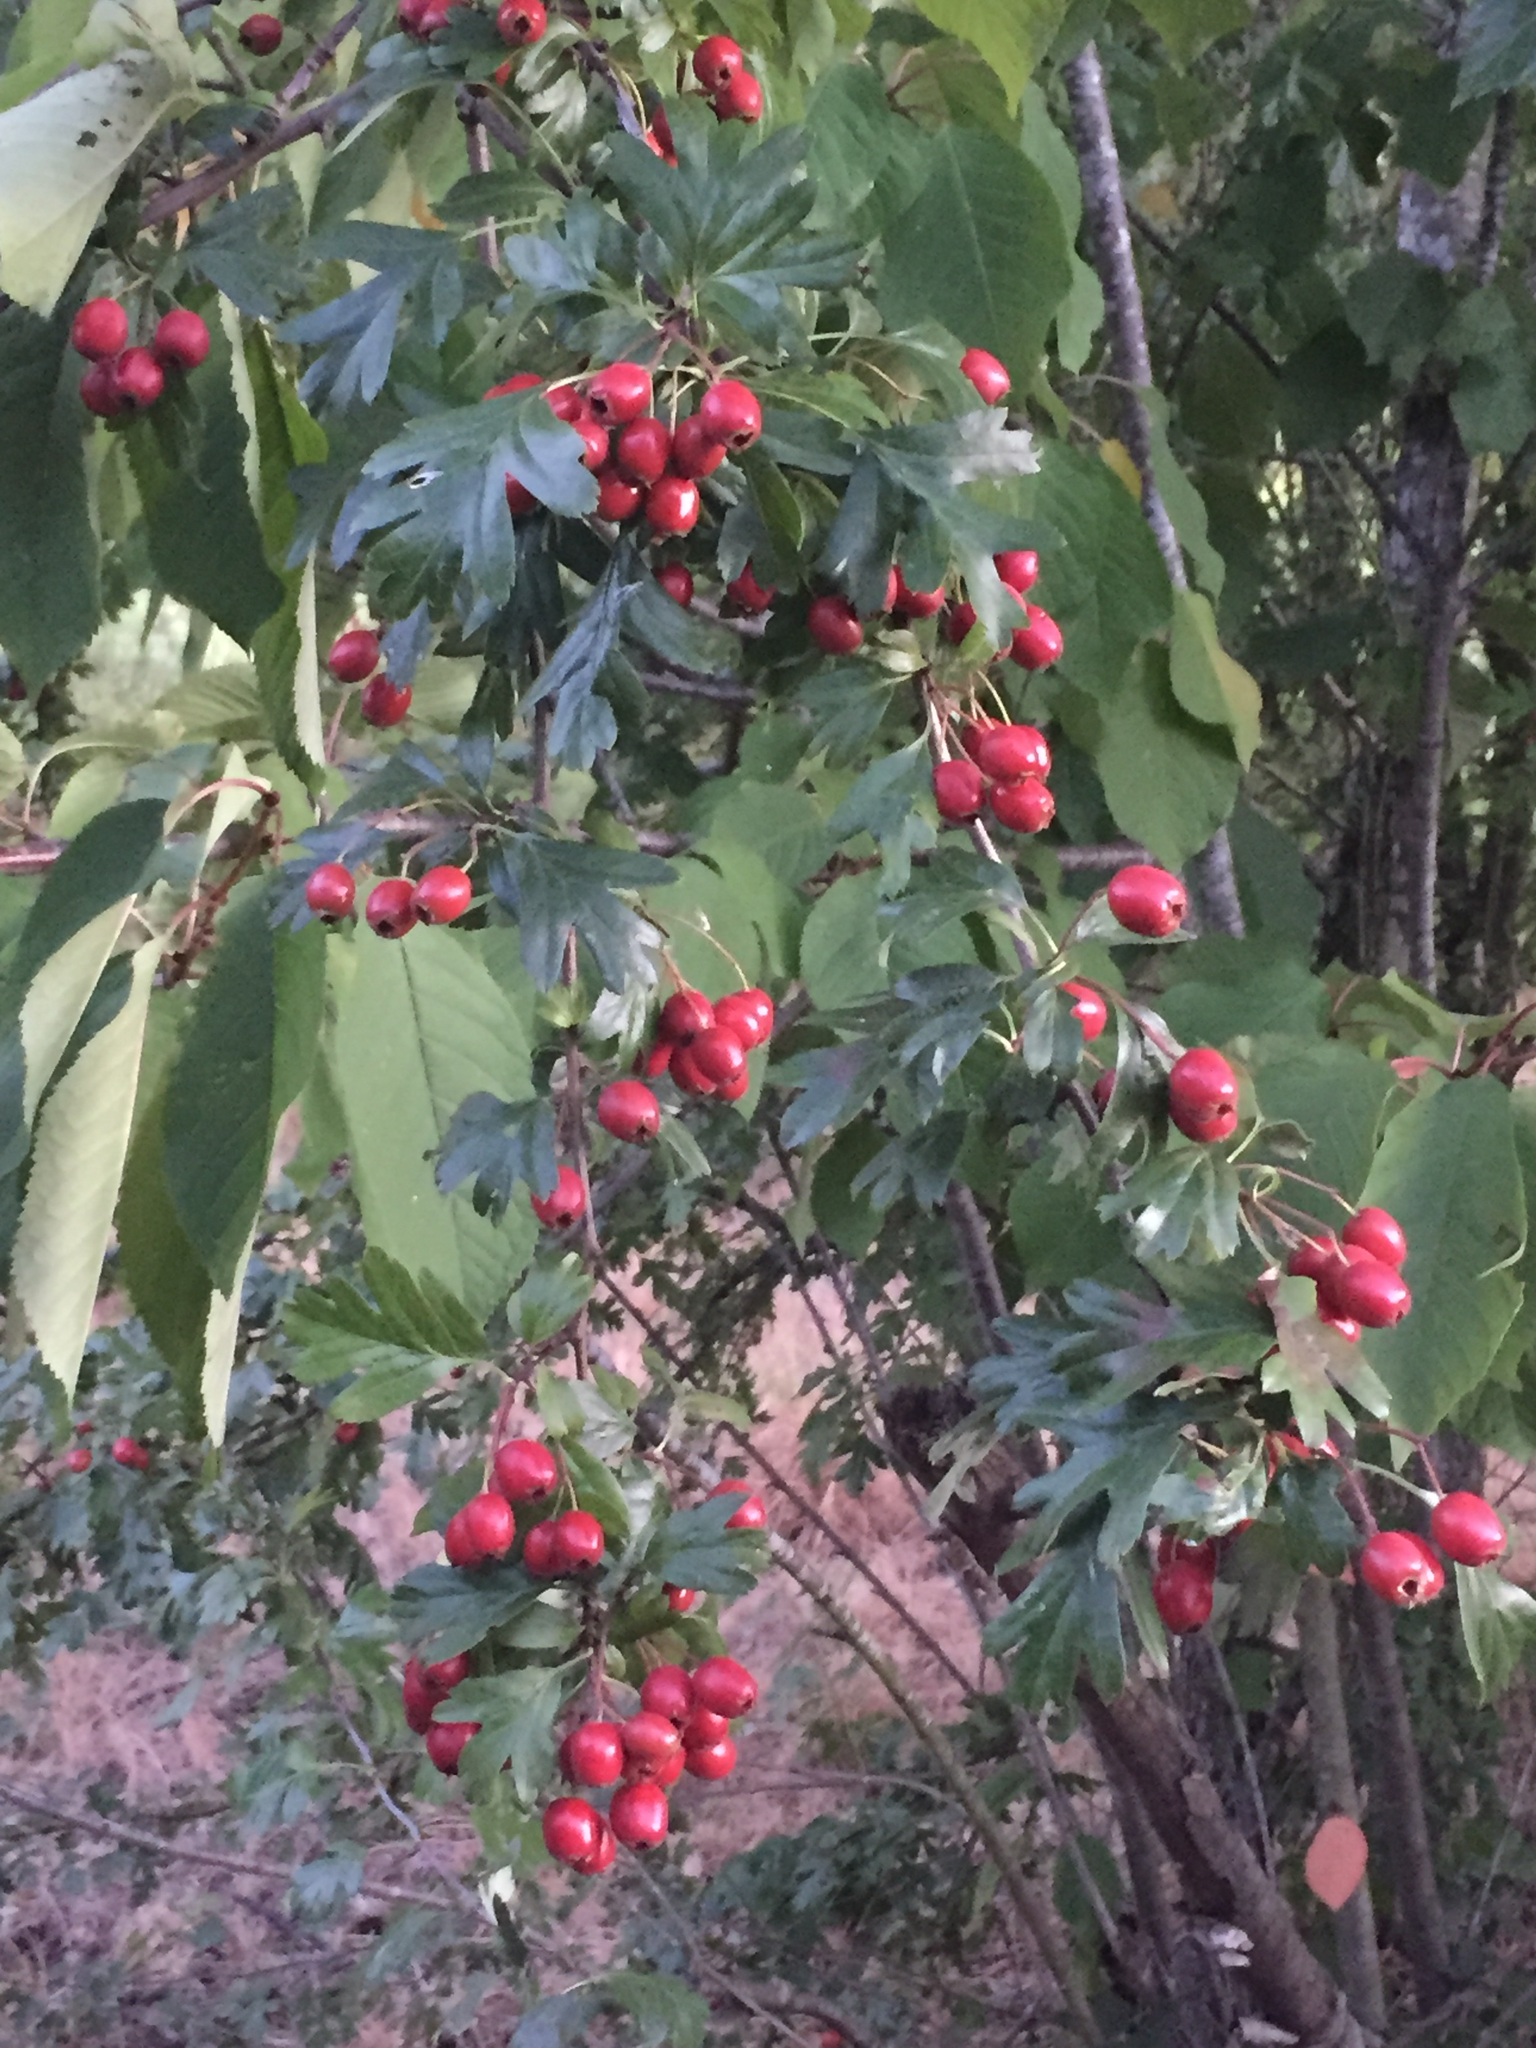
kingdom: Plantae
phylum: Tracheophyta
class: Magnoliopsida
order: Rosales
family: Rosaceae
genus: Crataegus
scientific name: Crataegus monogyna
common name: Hawthorn
